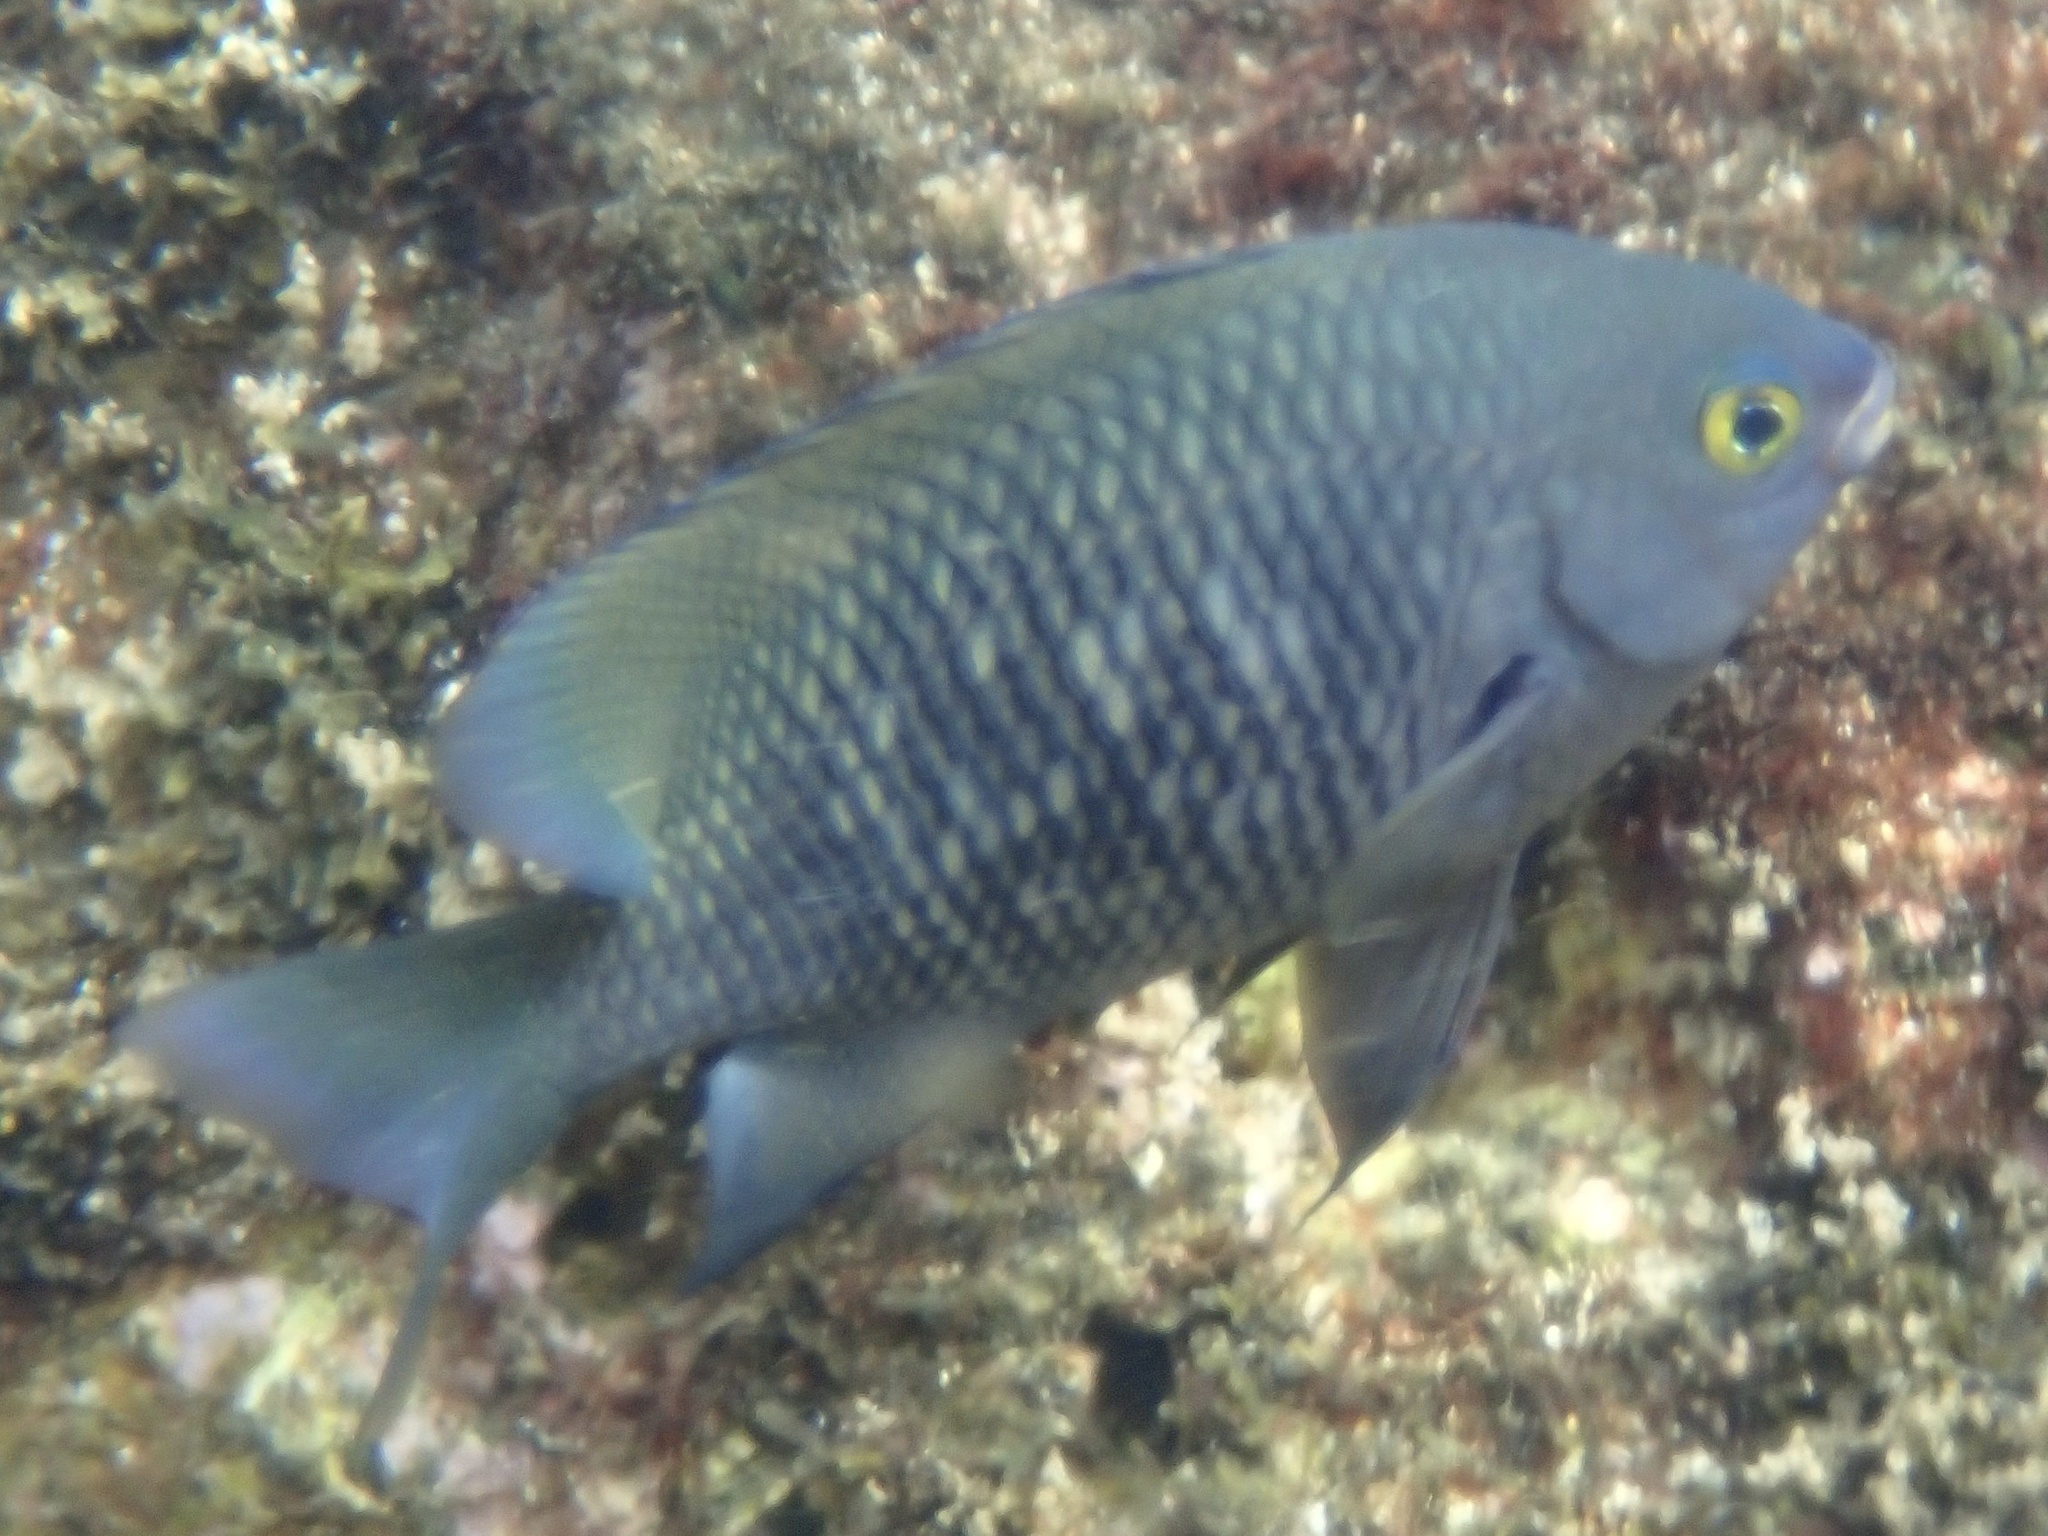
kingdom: Animalia
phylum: Chordata
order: Perciformes
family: Pomacentridae
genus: Stegastes
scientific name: Stegastes fasciolatus
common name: Pacific gregory
